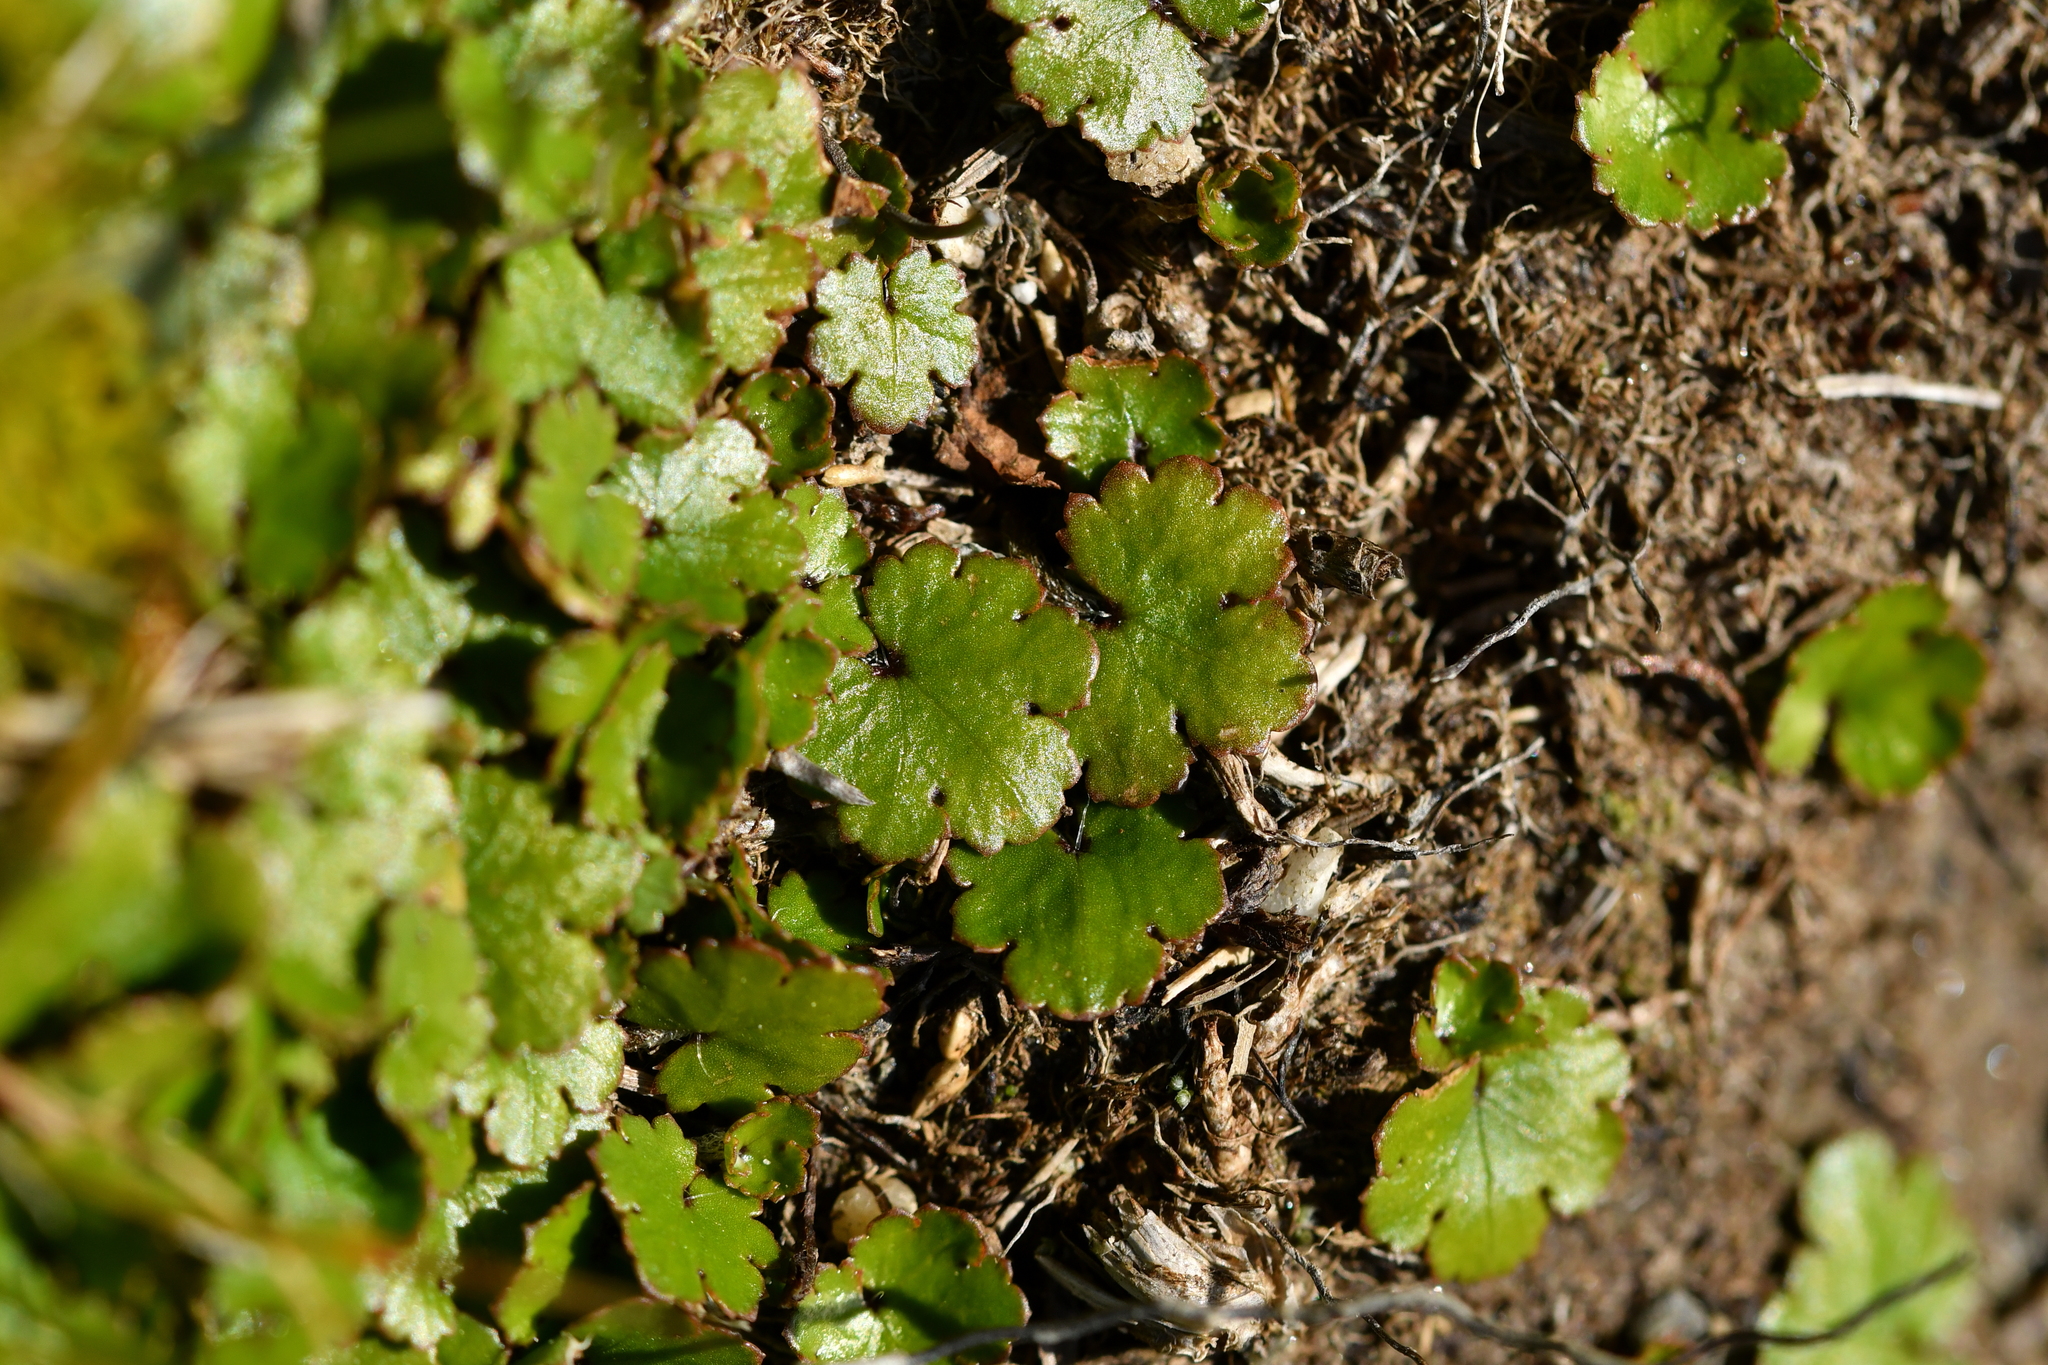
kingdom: Plantae
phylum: Tracheophyta
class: Magnoliopsida
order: Apiales
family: Araliaceae
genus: Hydrocotyle
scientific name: Hydrocotyle novae-zeelandiae
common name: New zealand pennywort
